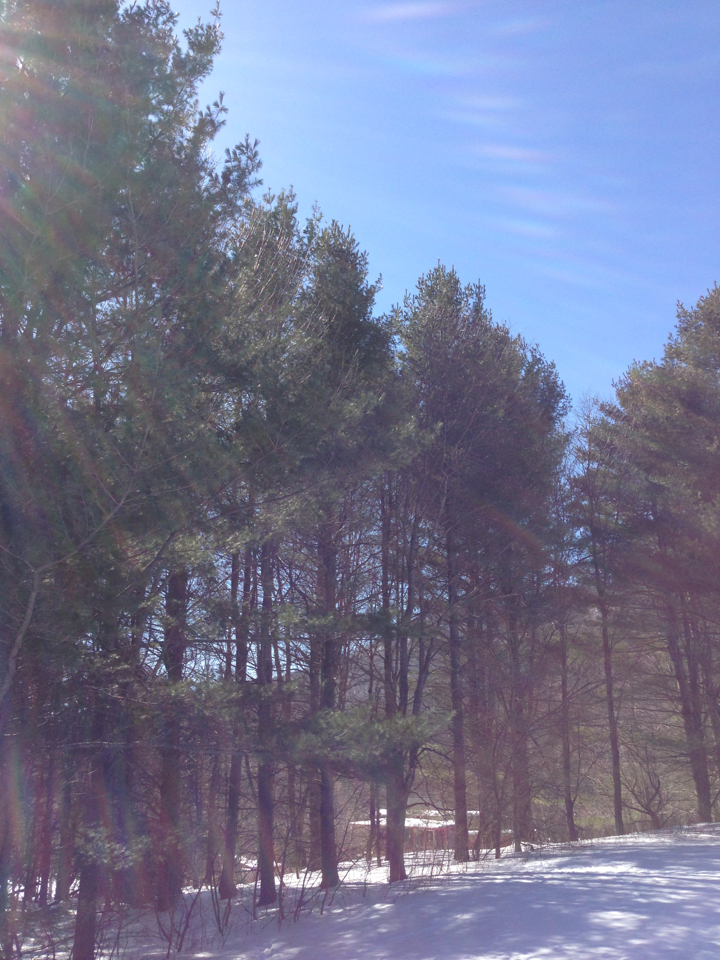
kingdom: Plantae
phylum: Tracheophyta
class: Pinopsida
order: Pinales
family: Pinaceae
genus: Pinus
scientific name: Pinus strobus
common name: Weymouth pine
